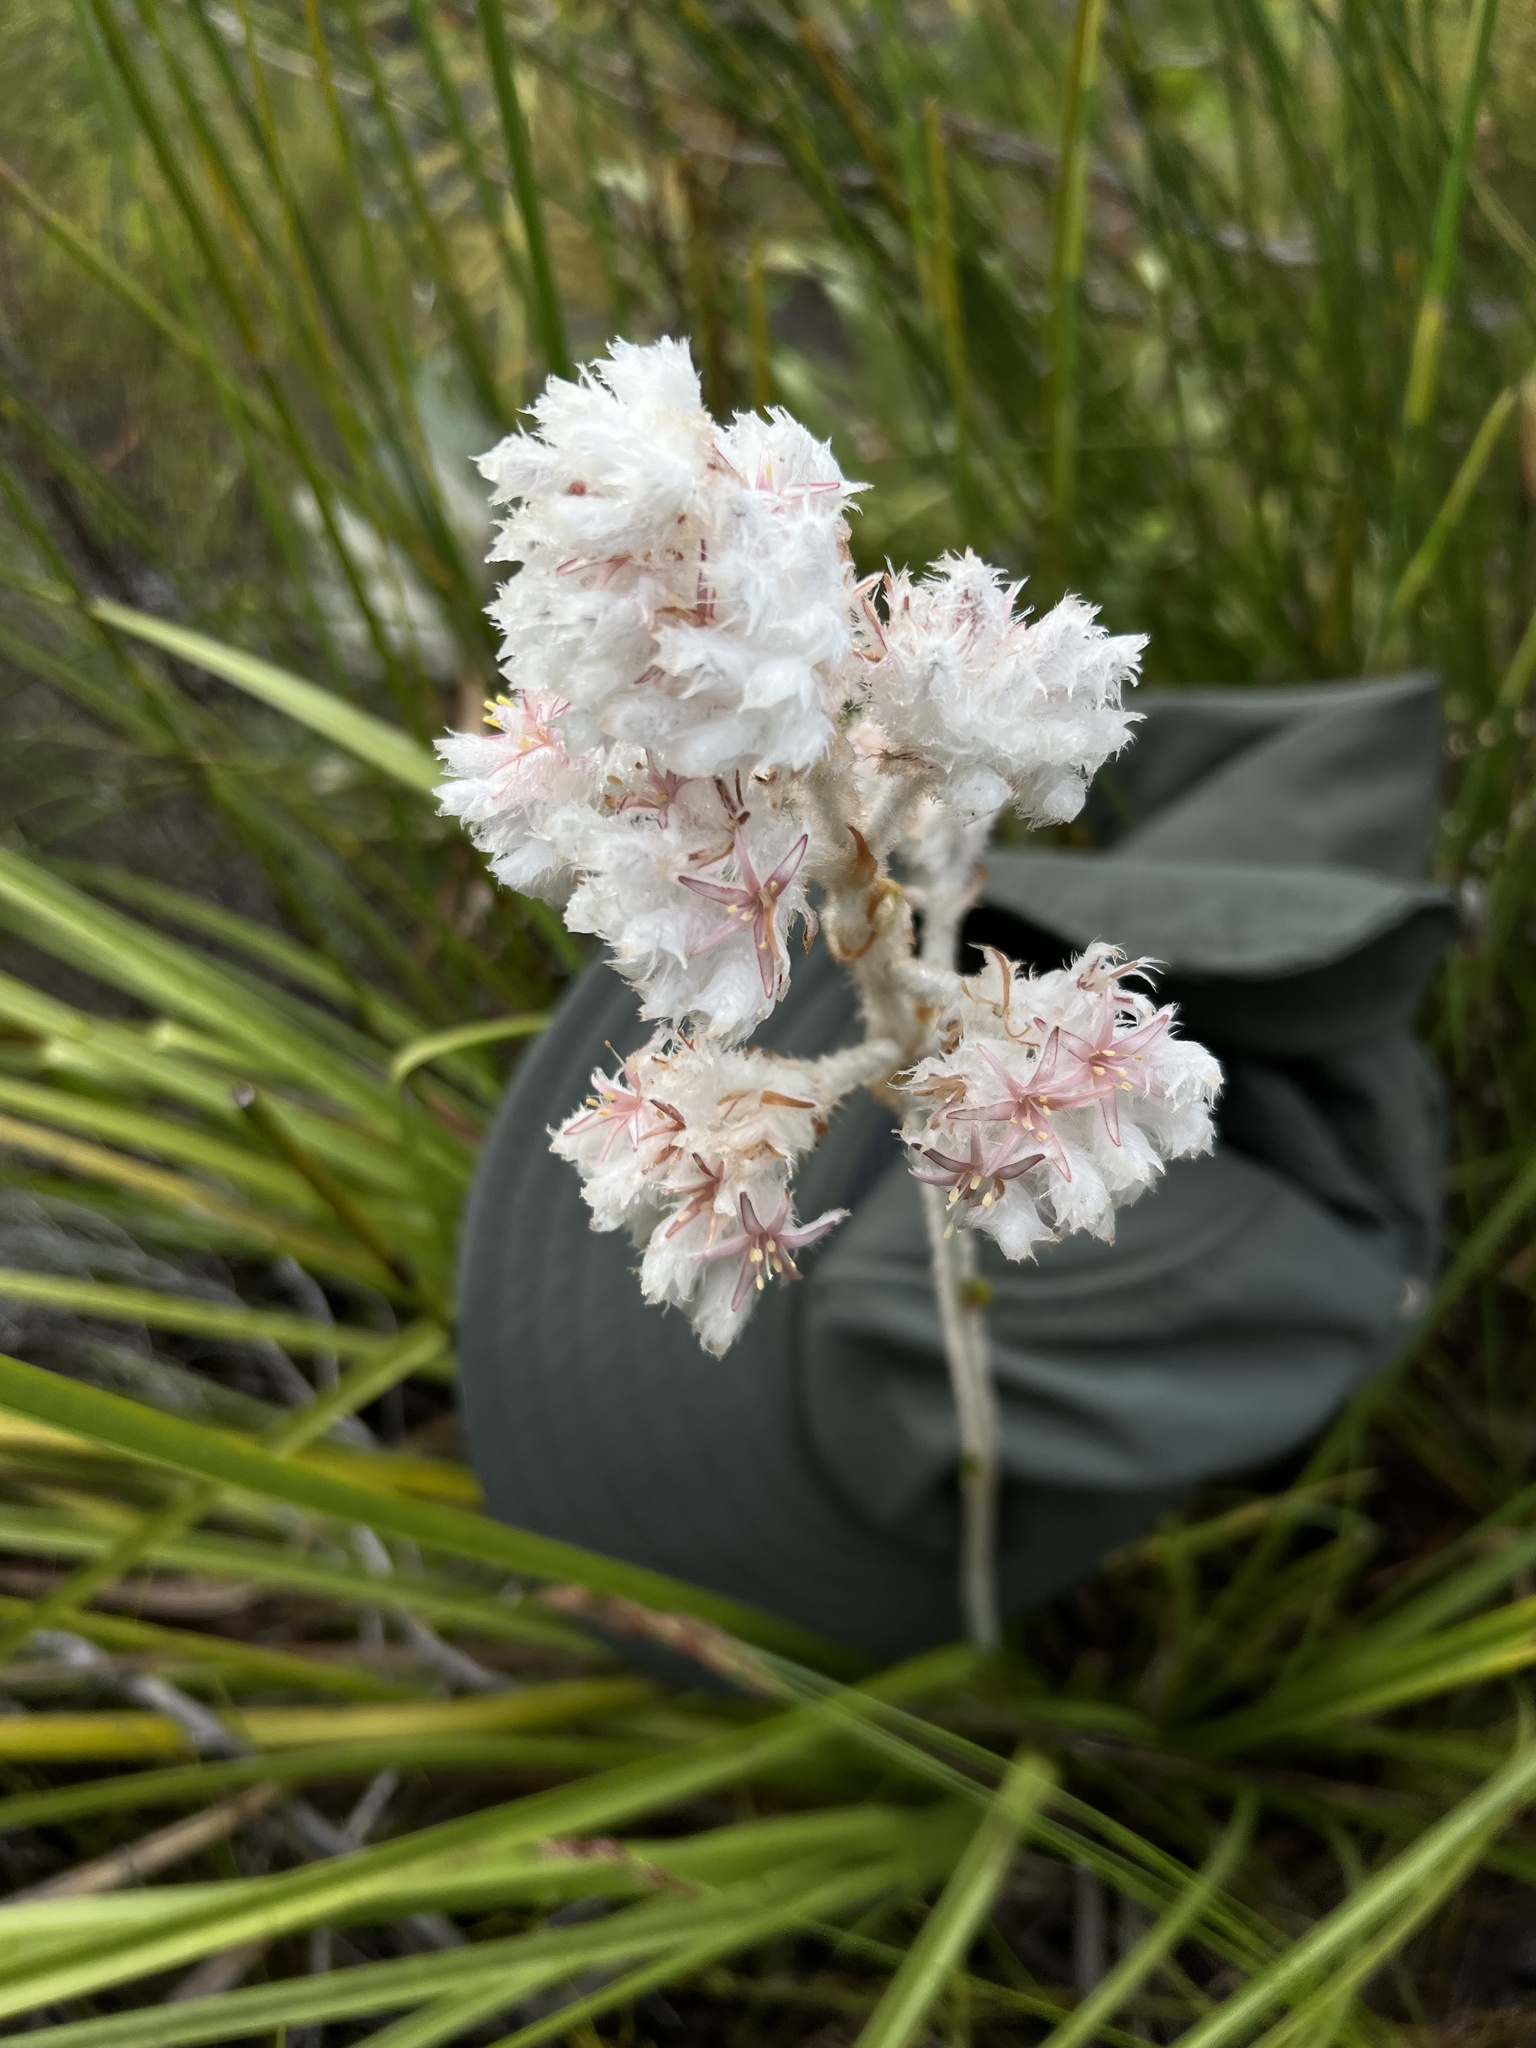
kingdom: Plantae
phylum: Tracheophyta
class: Liliopsida
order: Asparagales
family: Lanariaceae
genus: Lanaria
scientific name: Lanaria lanata
